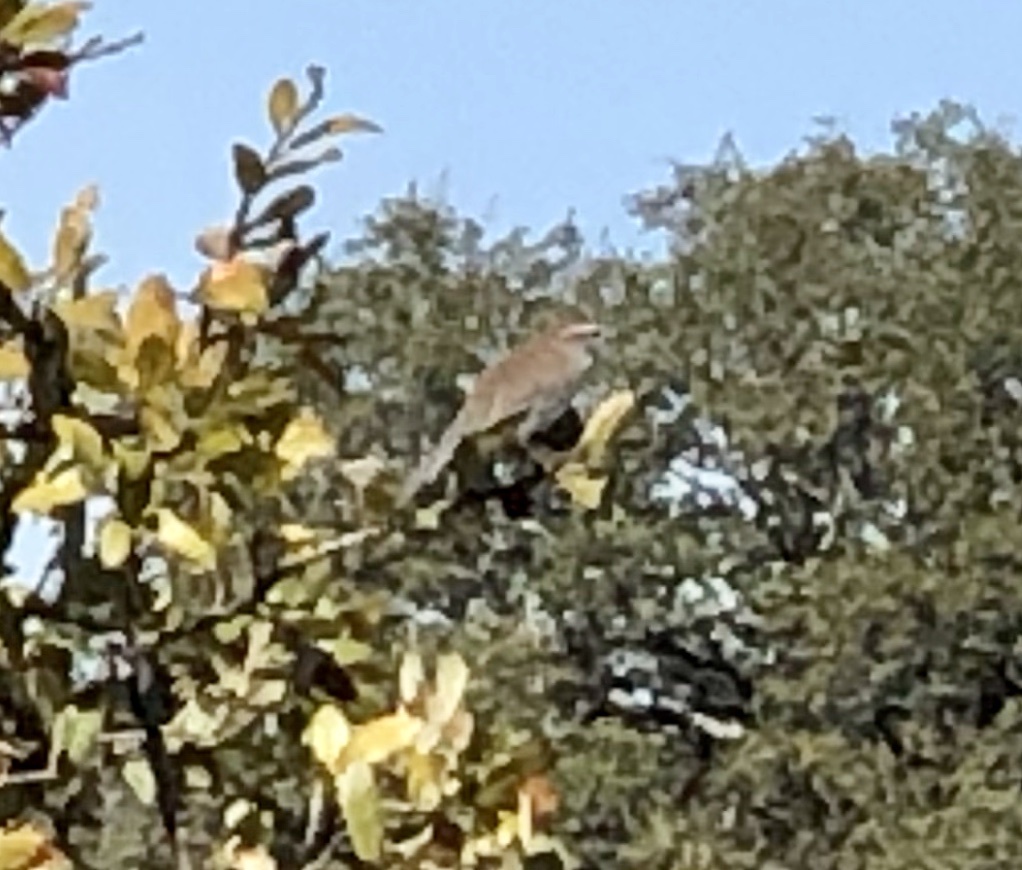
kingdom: Animalia
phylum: Chordata
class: Aves
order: Passeriformes
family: Troglodytidae
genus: Thryomanes
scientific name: Thryomanes bewickii
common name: Bewick's wren
